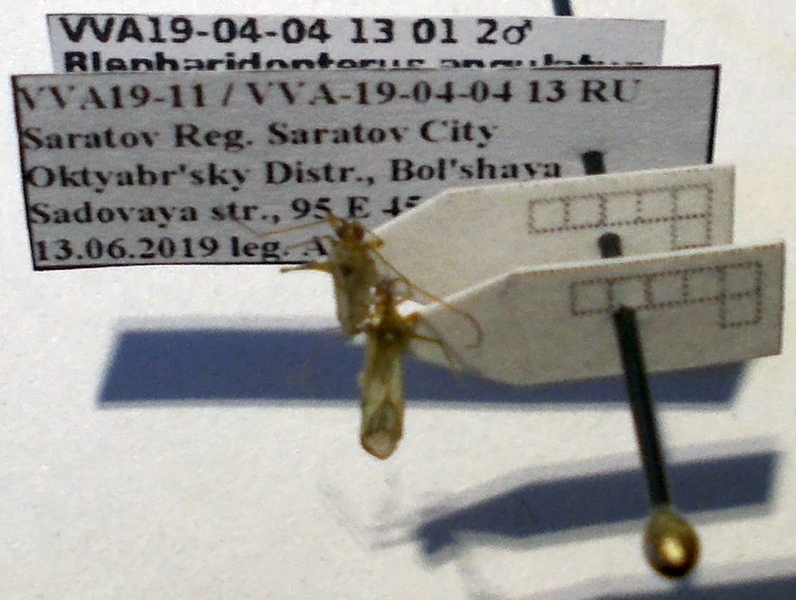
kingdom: Animalia
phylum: Arthropoda
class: Insecta
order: Hemiptera
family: Miridae
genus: Blepharidopterus
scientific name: Blepharidopterus angulatus
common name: Plant bug
